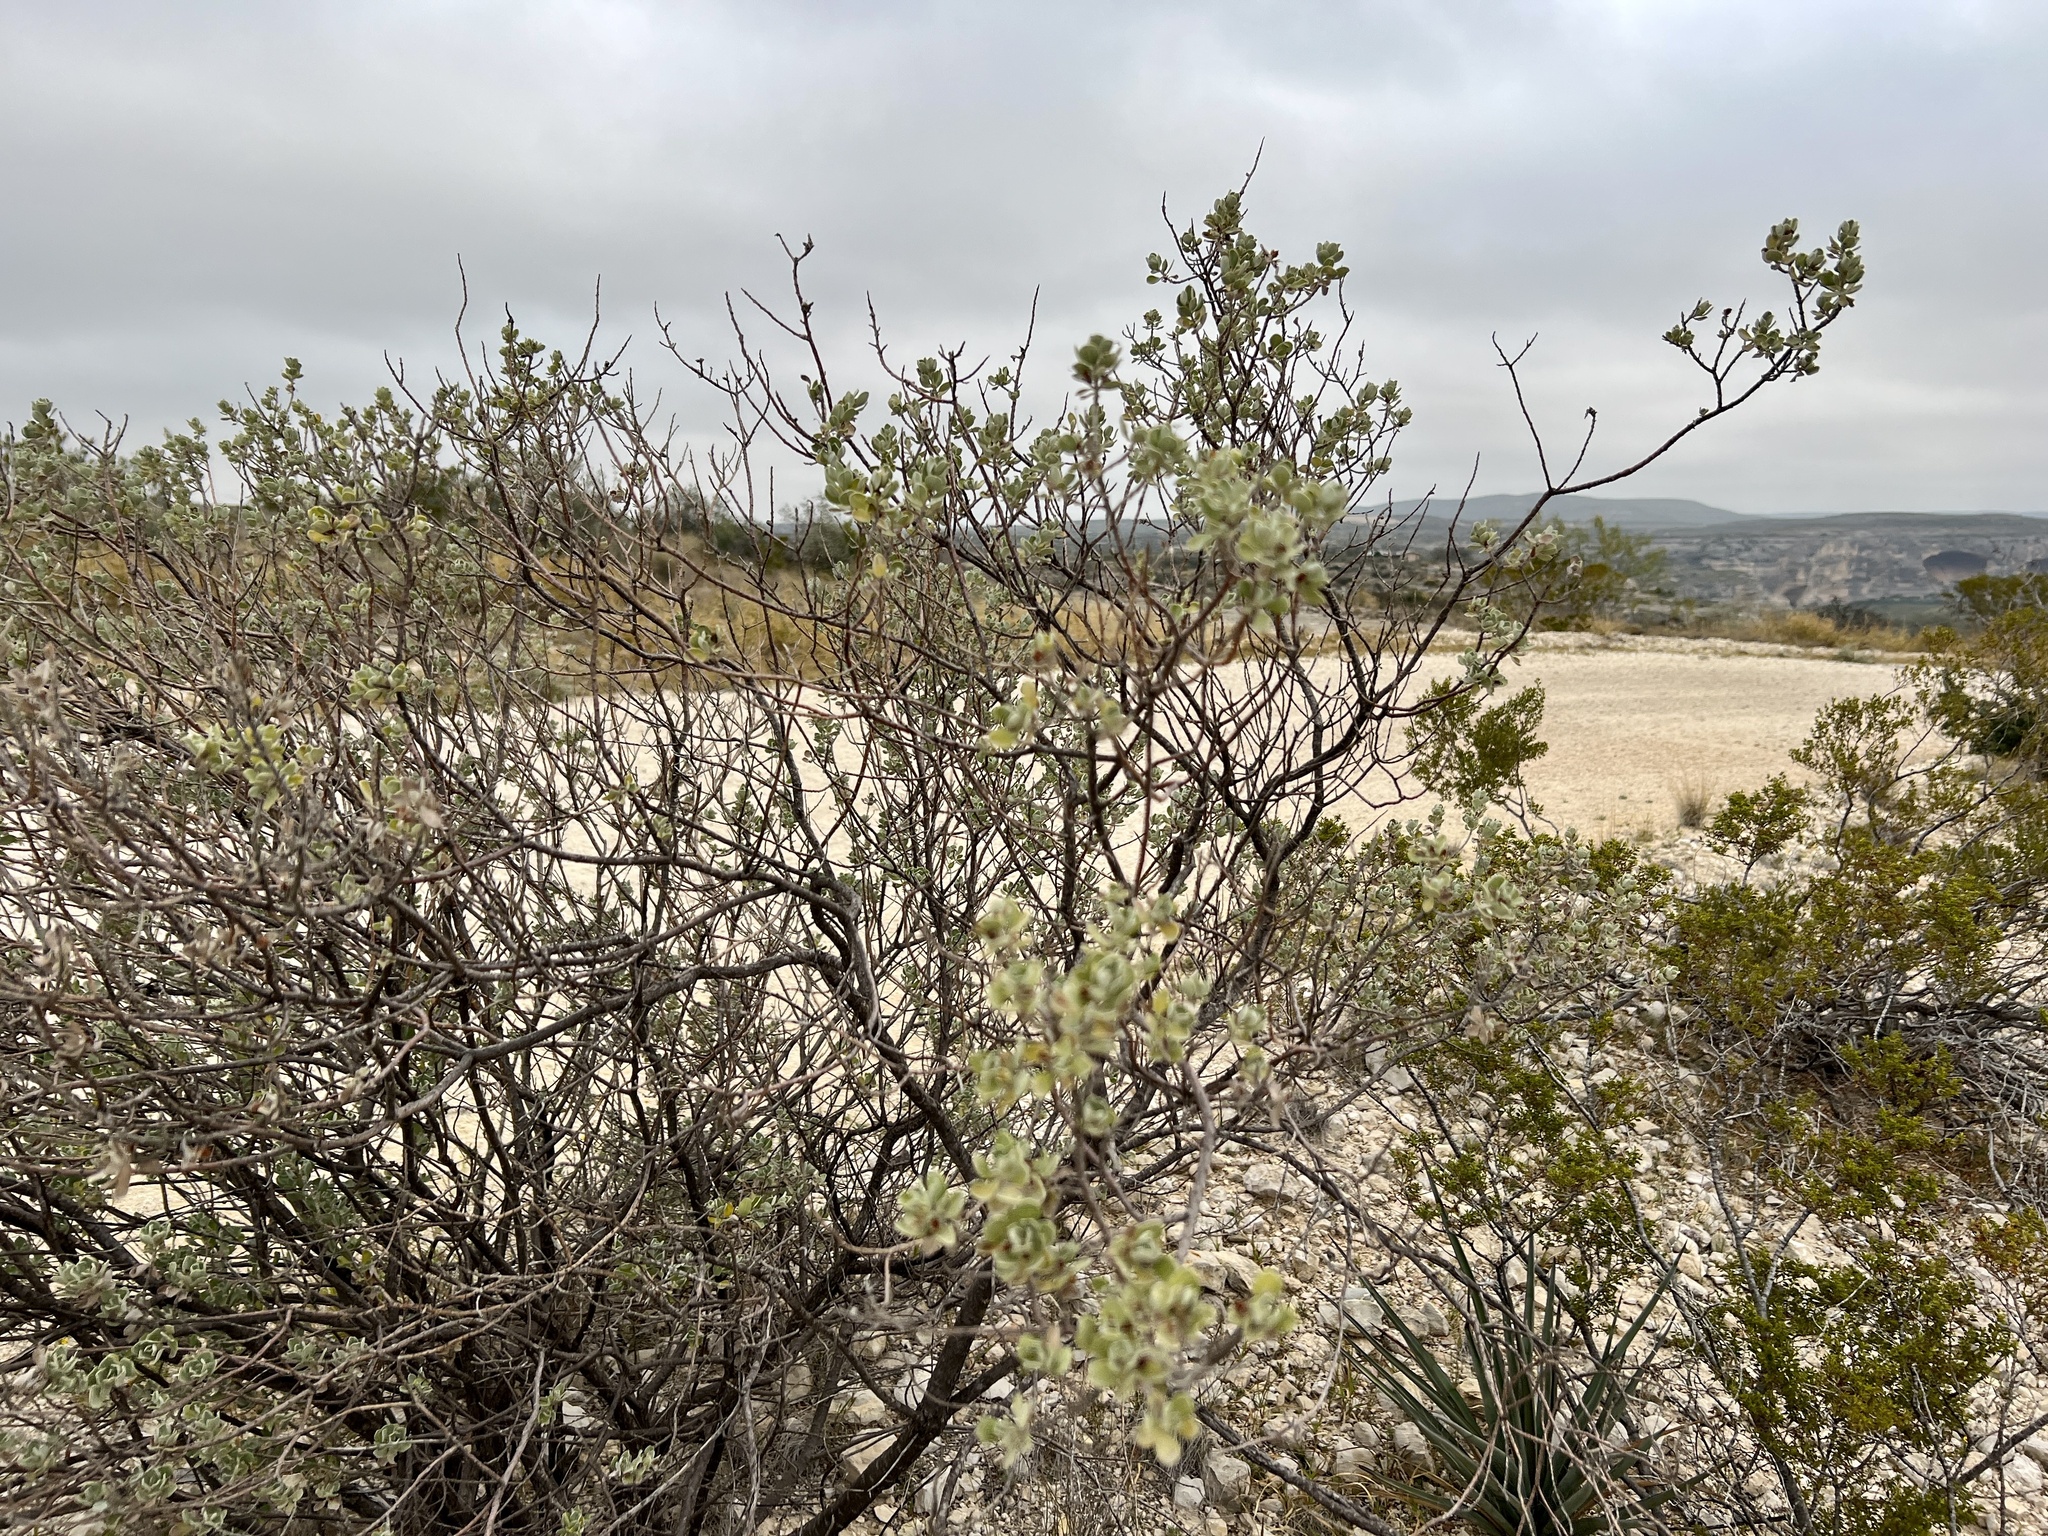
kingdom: Plantae
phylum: Tracheophyta
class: Magnoliopsida
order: Lamiales
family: Scrophulariaceae
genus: Leucophyllum
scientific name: Leucophyllum frutescens
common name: Texas silverleaf
